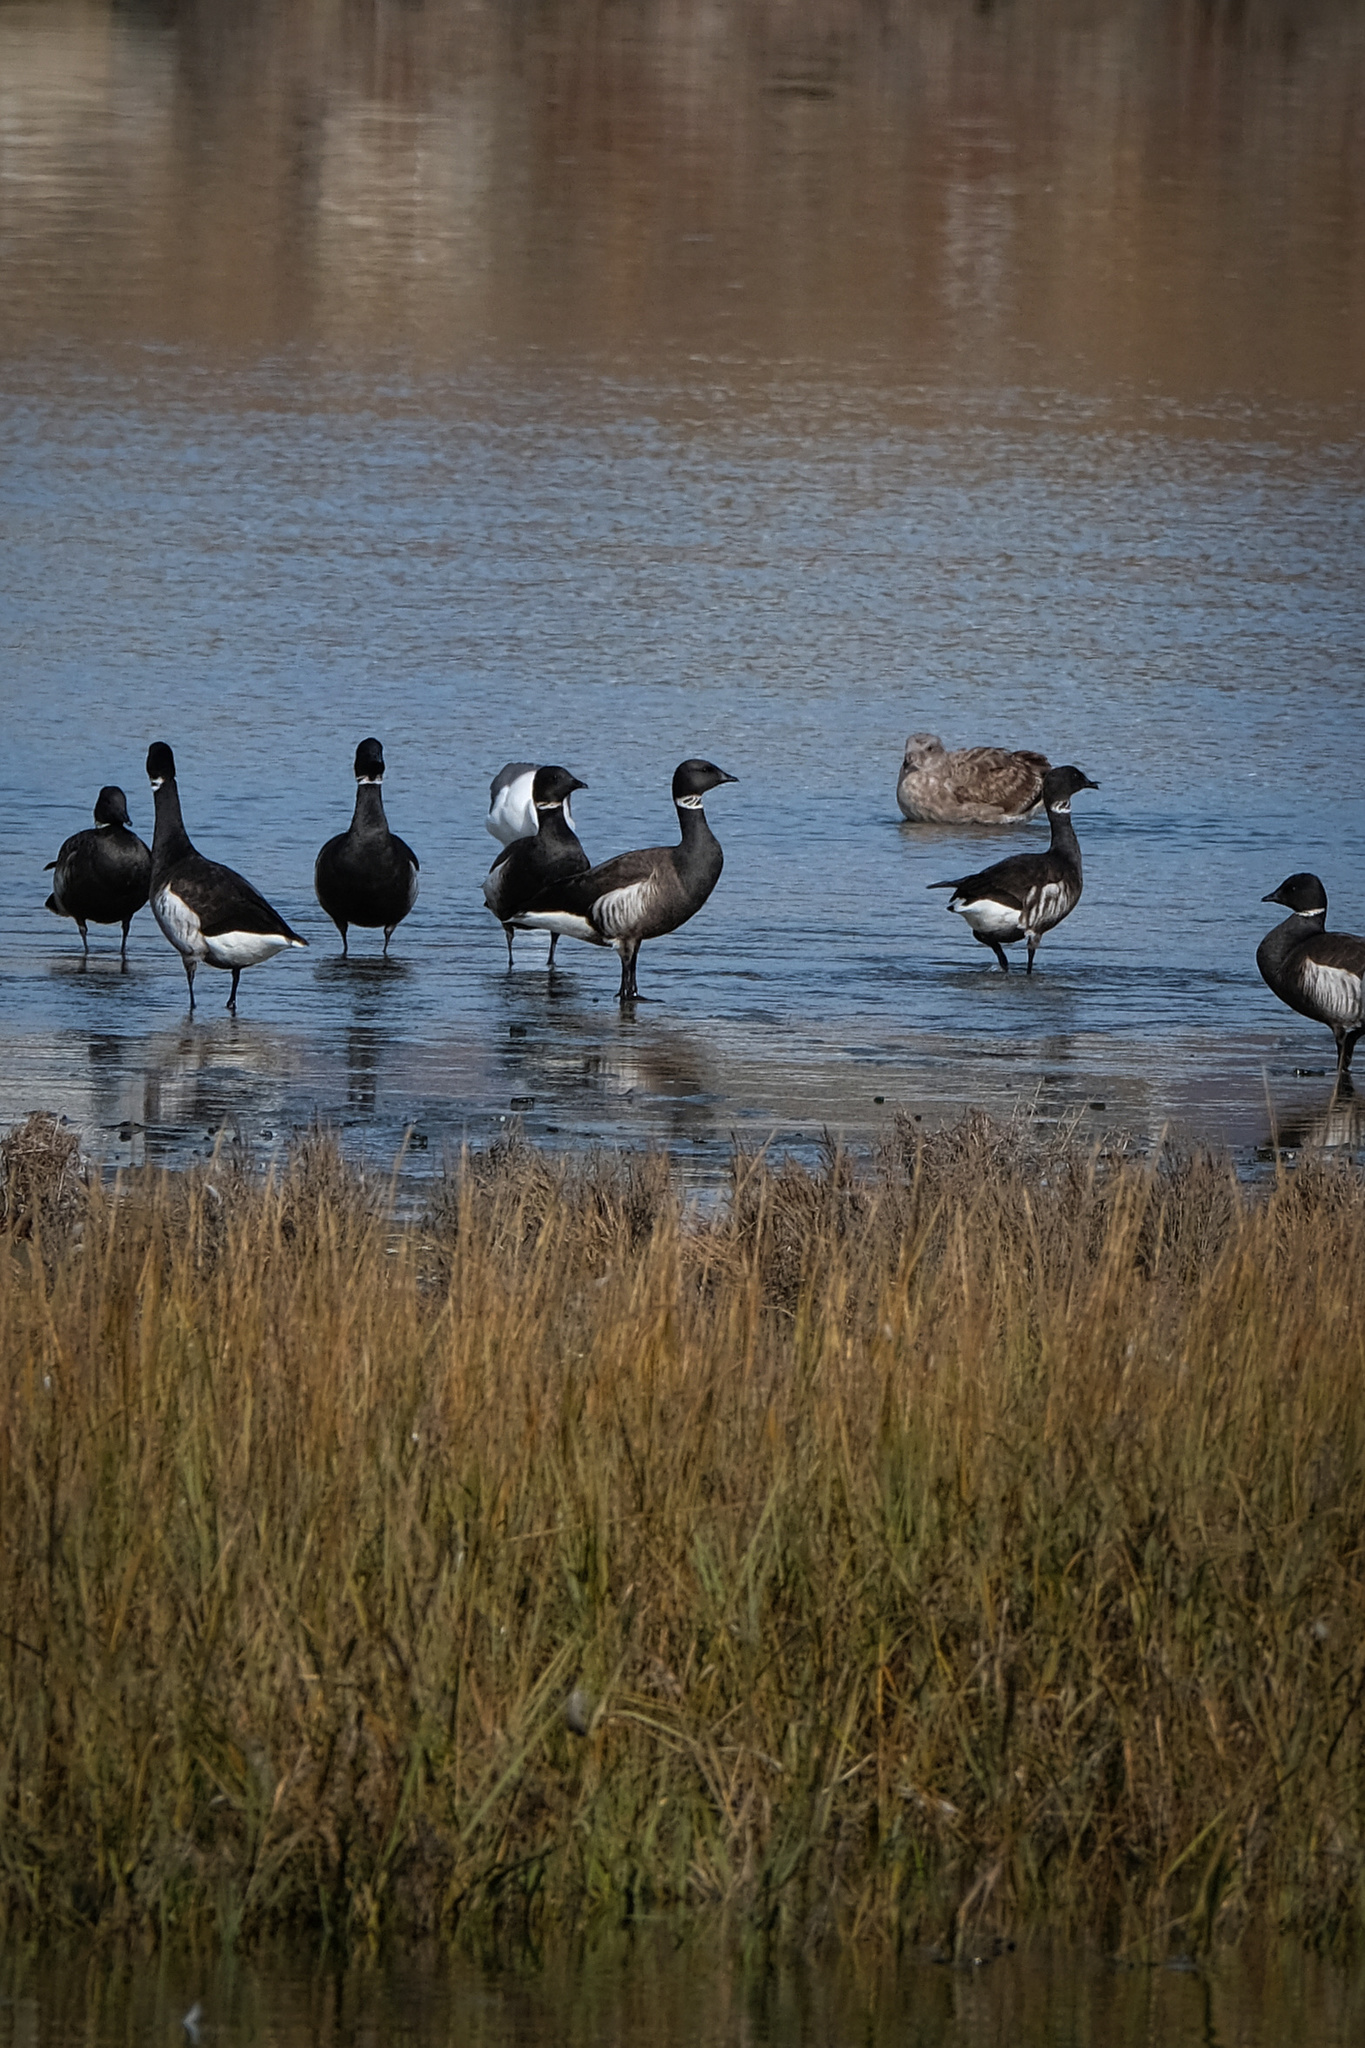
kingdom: Animalia
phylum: Chordata
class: Aves
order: Anseriformes
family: Anatidae
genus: Branta
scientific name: Branta bernicla
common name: Brant goose
